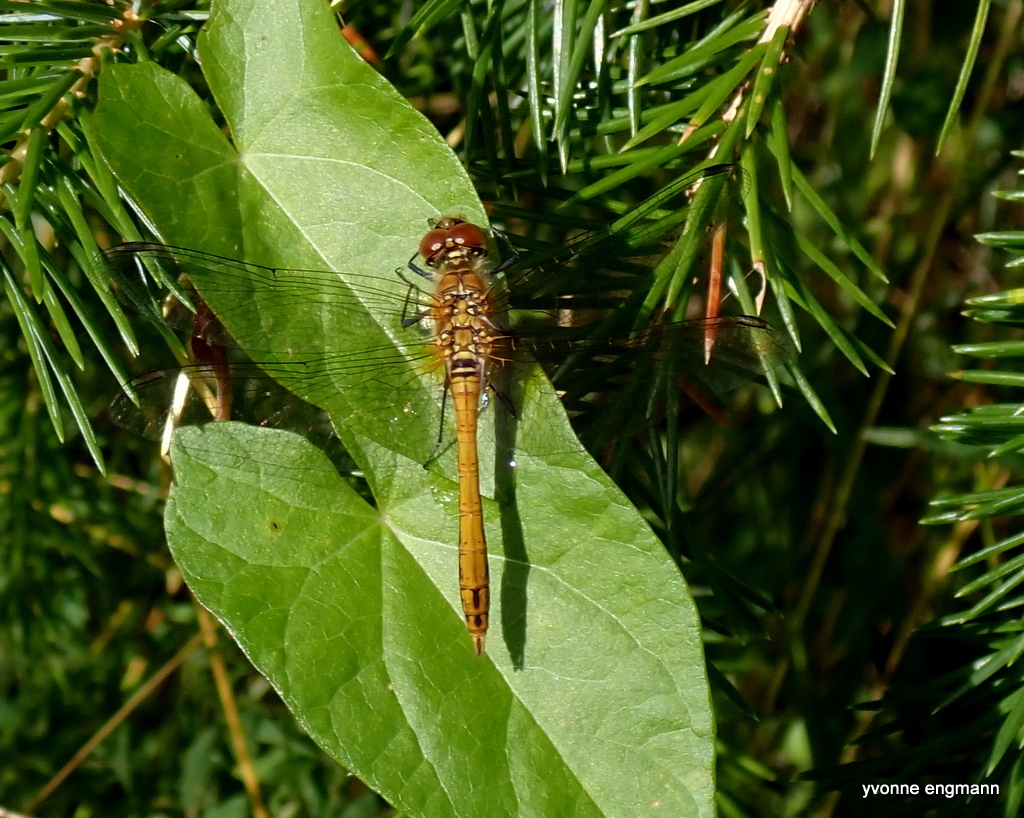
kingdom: Animalia
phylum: Arthropoda
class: Insecta
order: Odonata
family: Libellulidae
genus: Sympetrum
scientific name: Sympetrum sanguineum
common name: Ruddy darter
